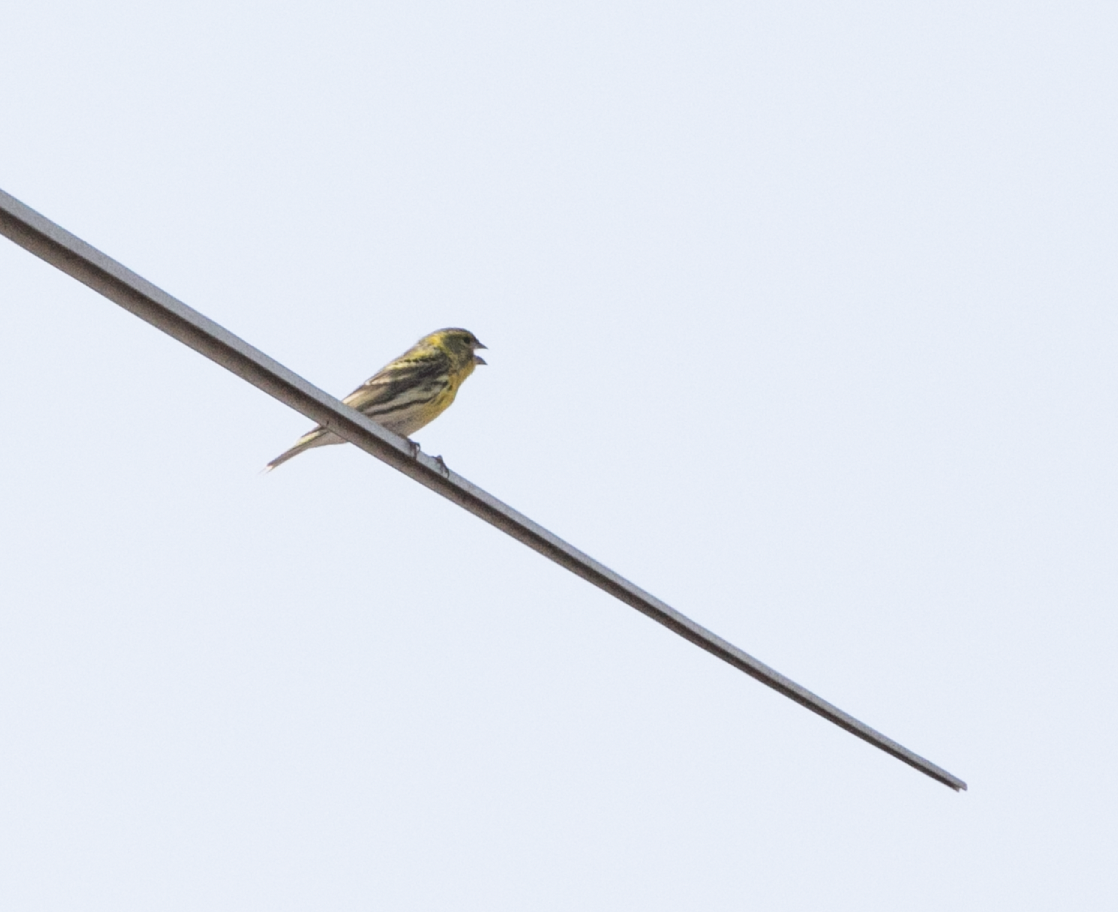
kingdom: Animalia
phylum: Chordata
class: Aves
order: Passeriformes
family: Fringillidae
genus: Serinus
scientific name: Serinus serinus
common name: European serin
